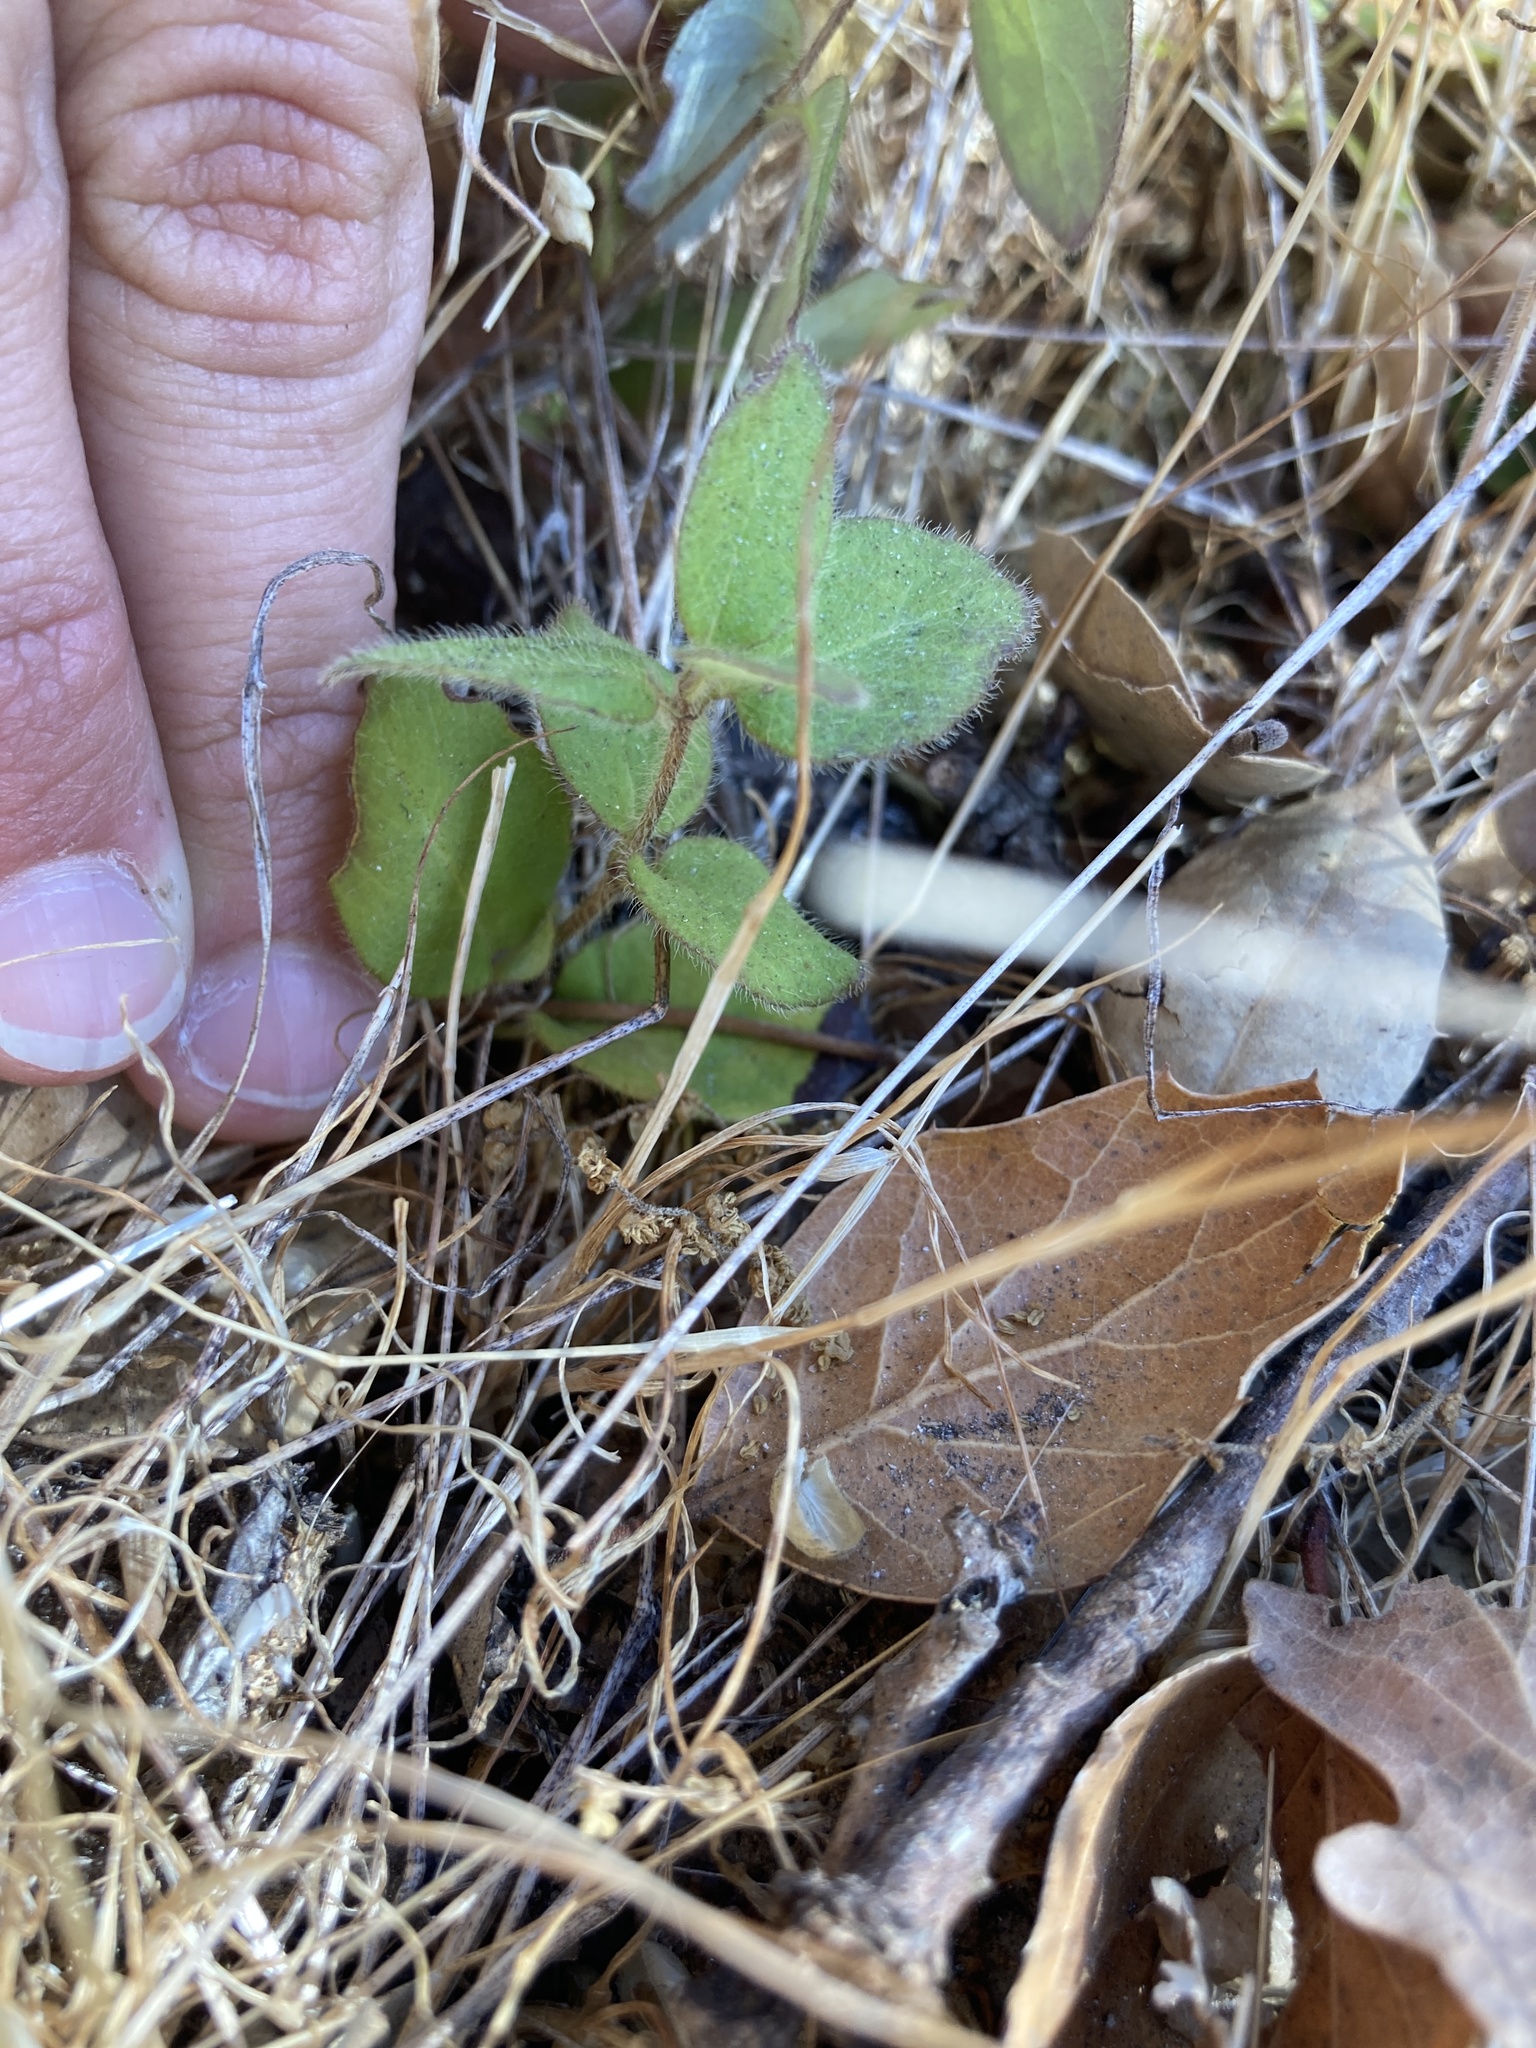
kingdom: Plantae
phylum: Tracheophyta
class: Magnoliopsida
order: Dipsacales
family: Caprifoliaceae
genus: Lonicera
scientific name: Lonicera hispidula
